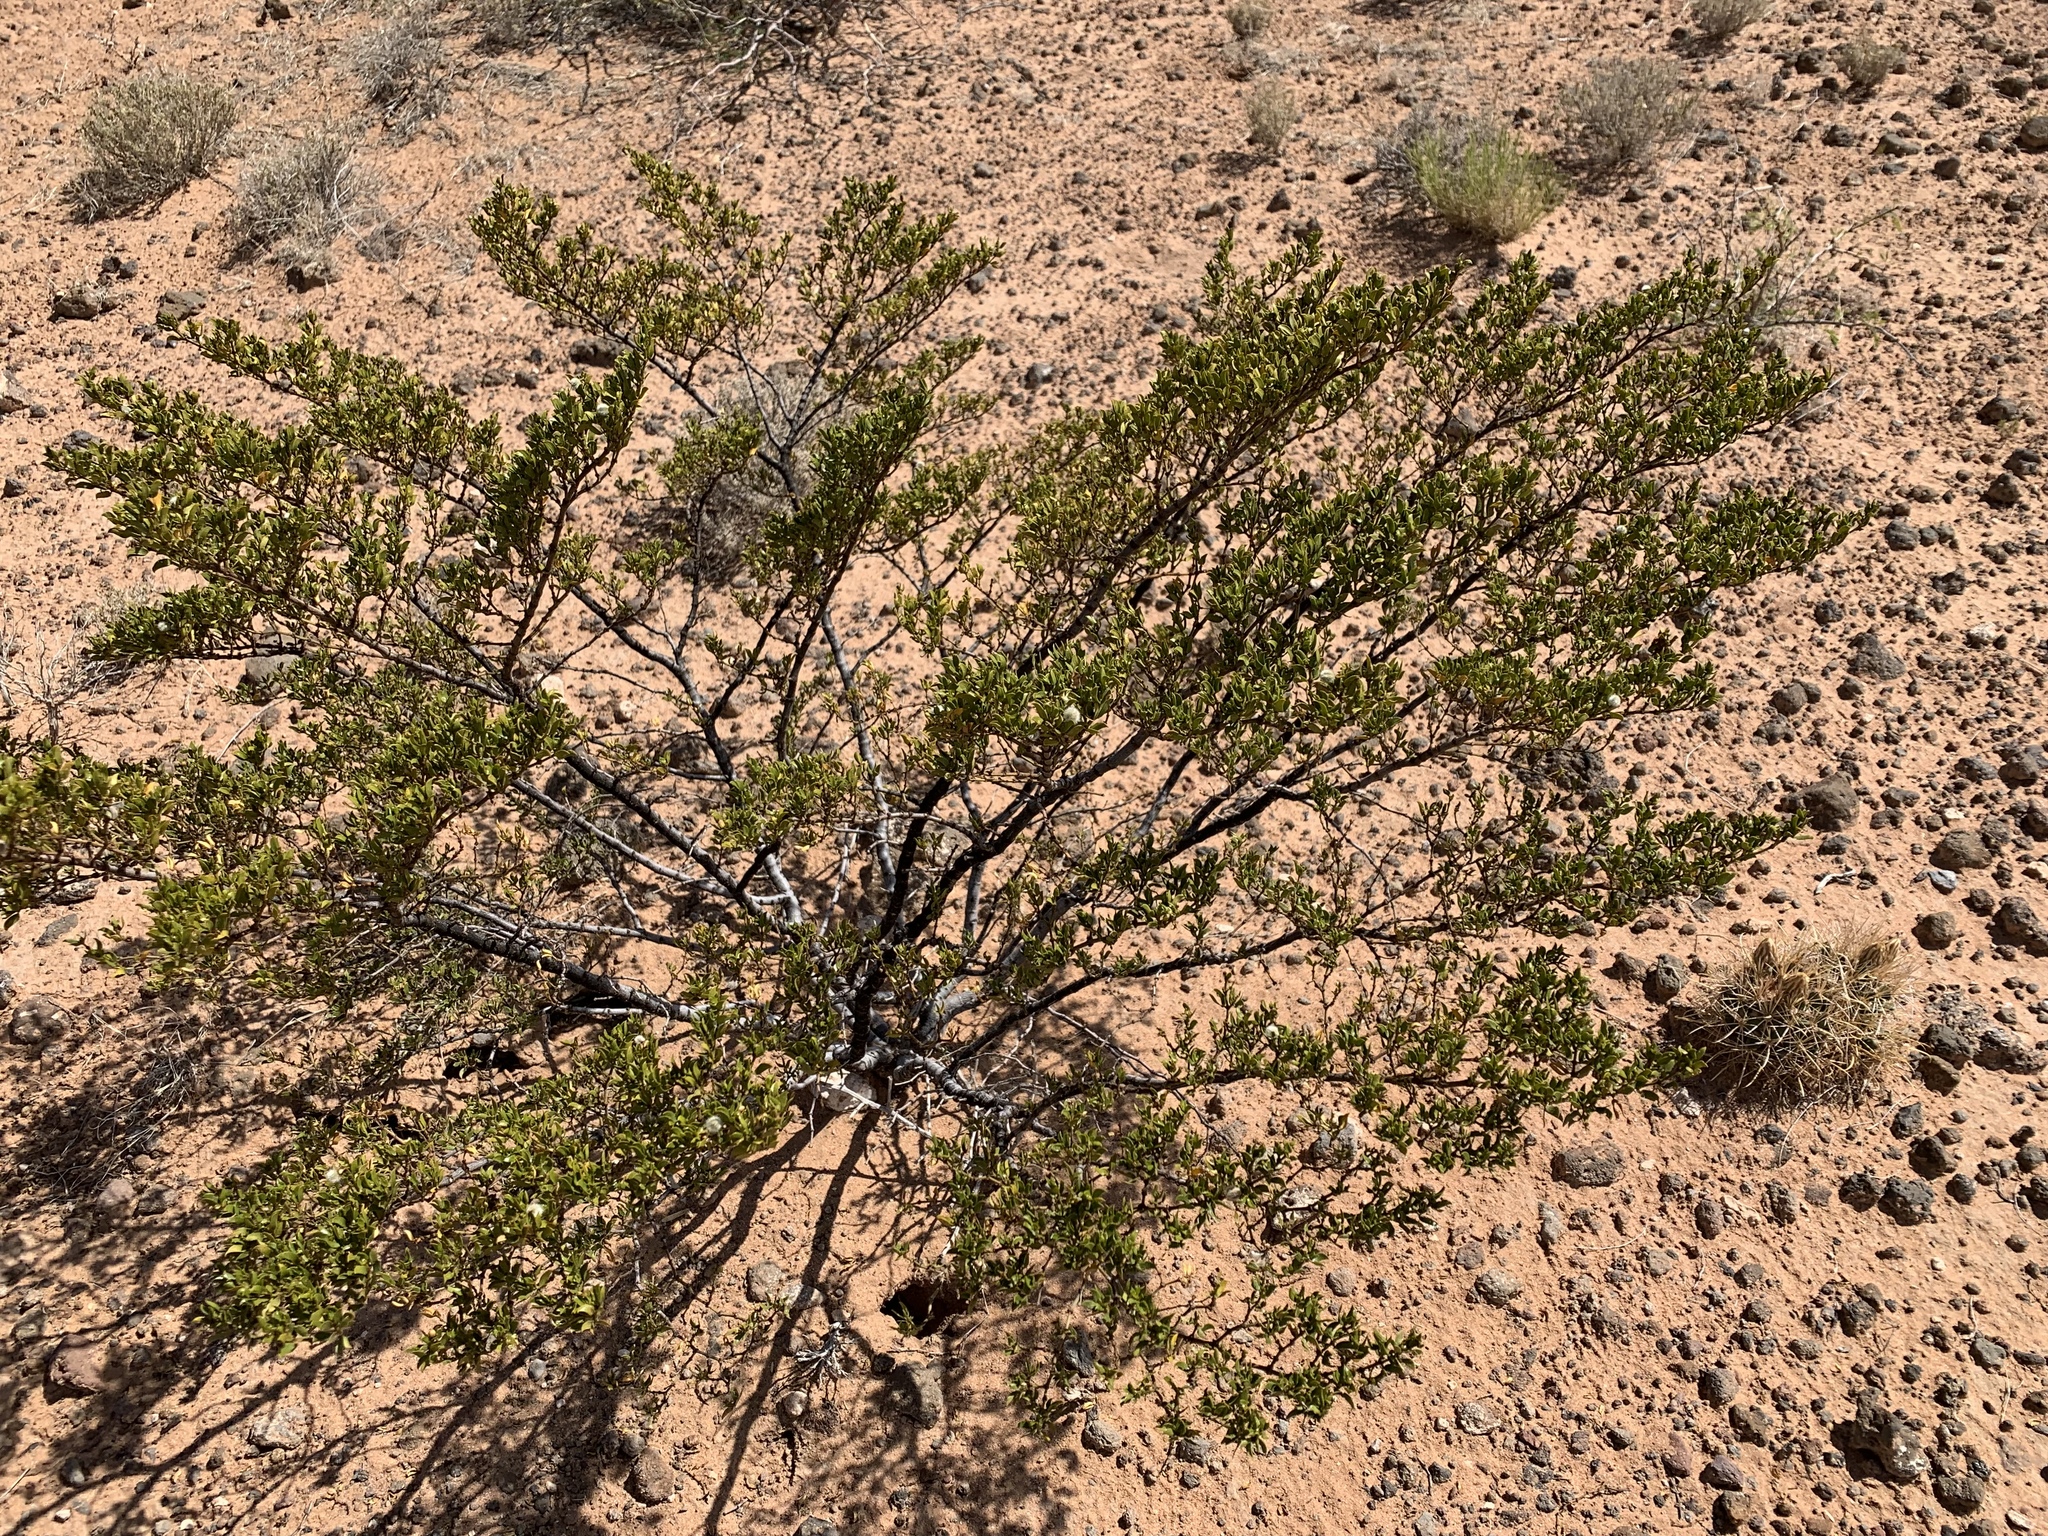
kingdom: Plantae
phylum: Tracheophyta
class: Magnoliopsida
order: Zygophyllales
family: Zygophyllaceae
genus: Larrea
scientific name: Larrea tridentata
